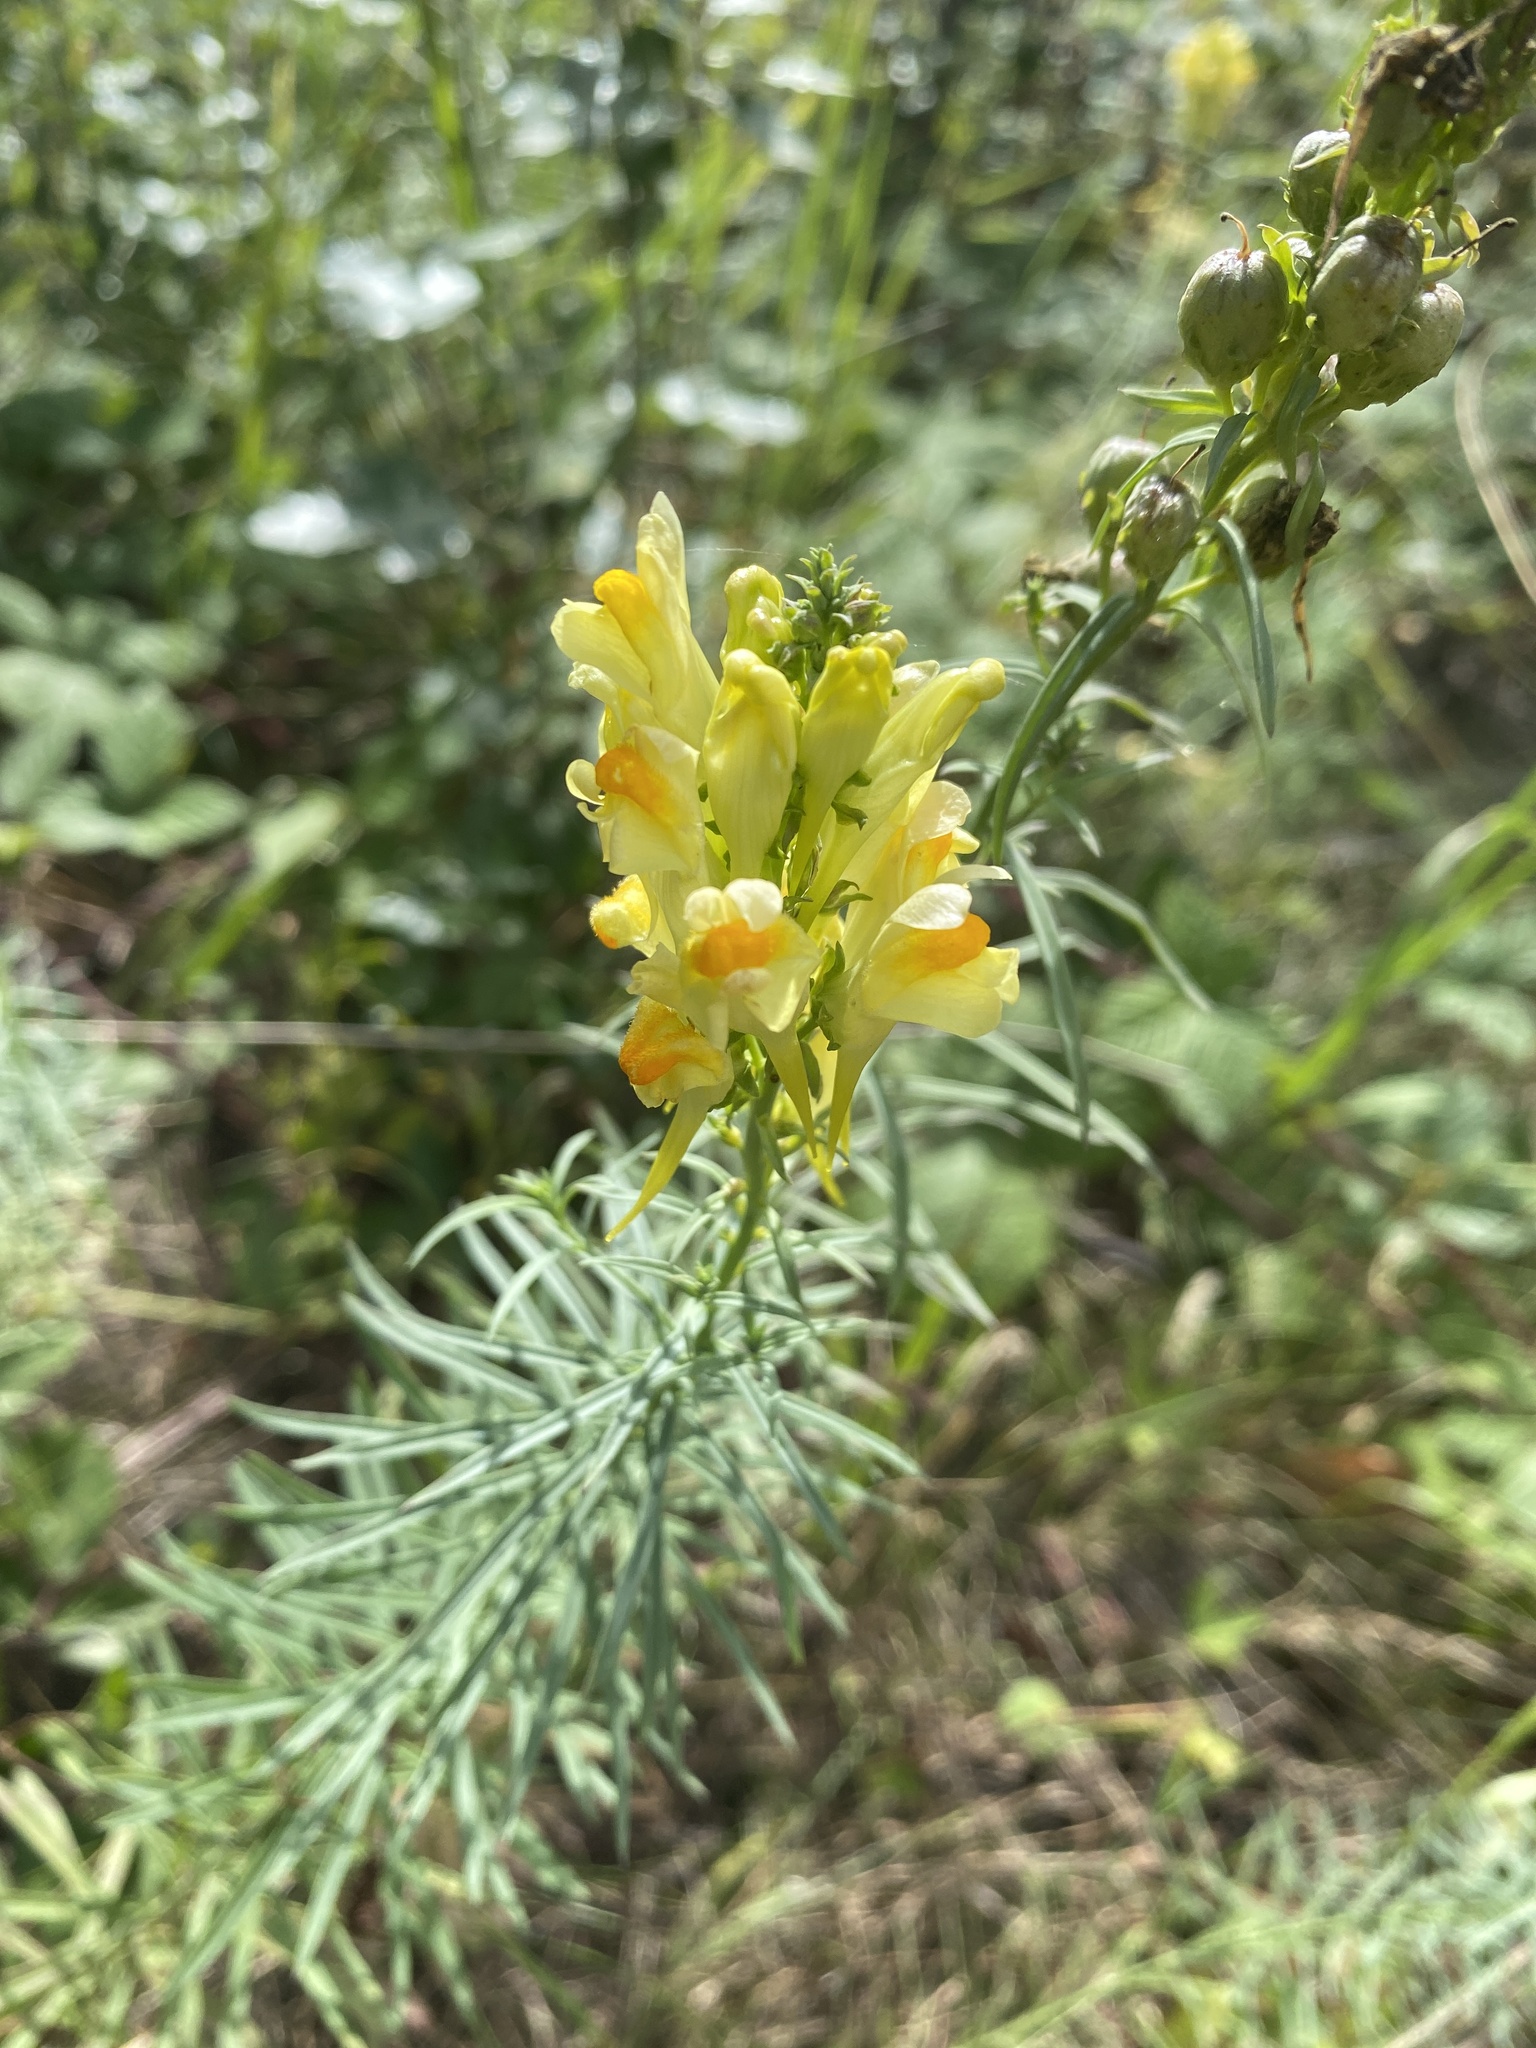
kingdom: Plantae
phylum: Tracheophyta
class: Magnoliopsida
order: Lamiales
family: Plantaginaceae
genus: Linaria
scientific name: Linaria vulgaris
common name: Butter and eggs
